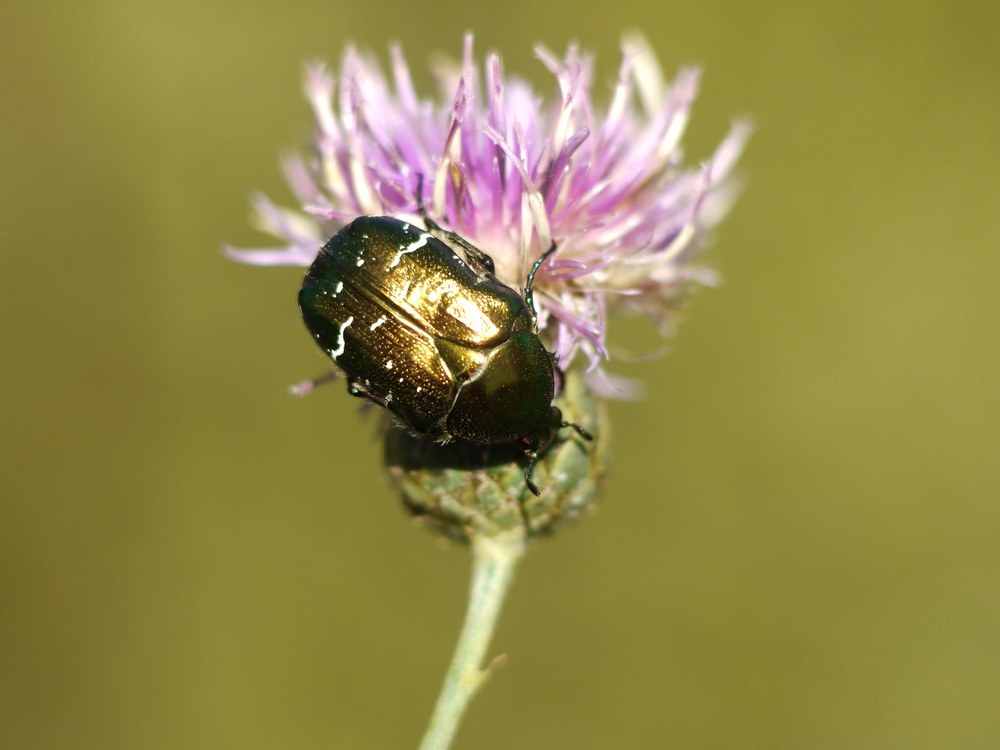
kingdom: Animalia
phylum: Arthropoda
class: Insecta
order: Coleoptera
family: Scarabaeidae
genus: Cetonia
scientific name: Cetonia aurata
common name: Rose chafer
